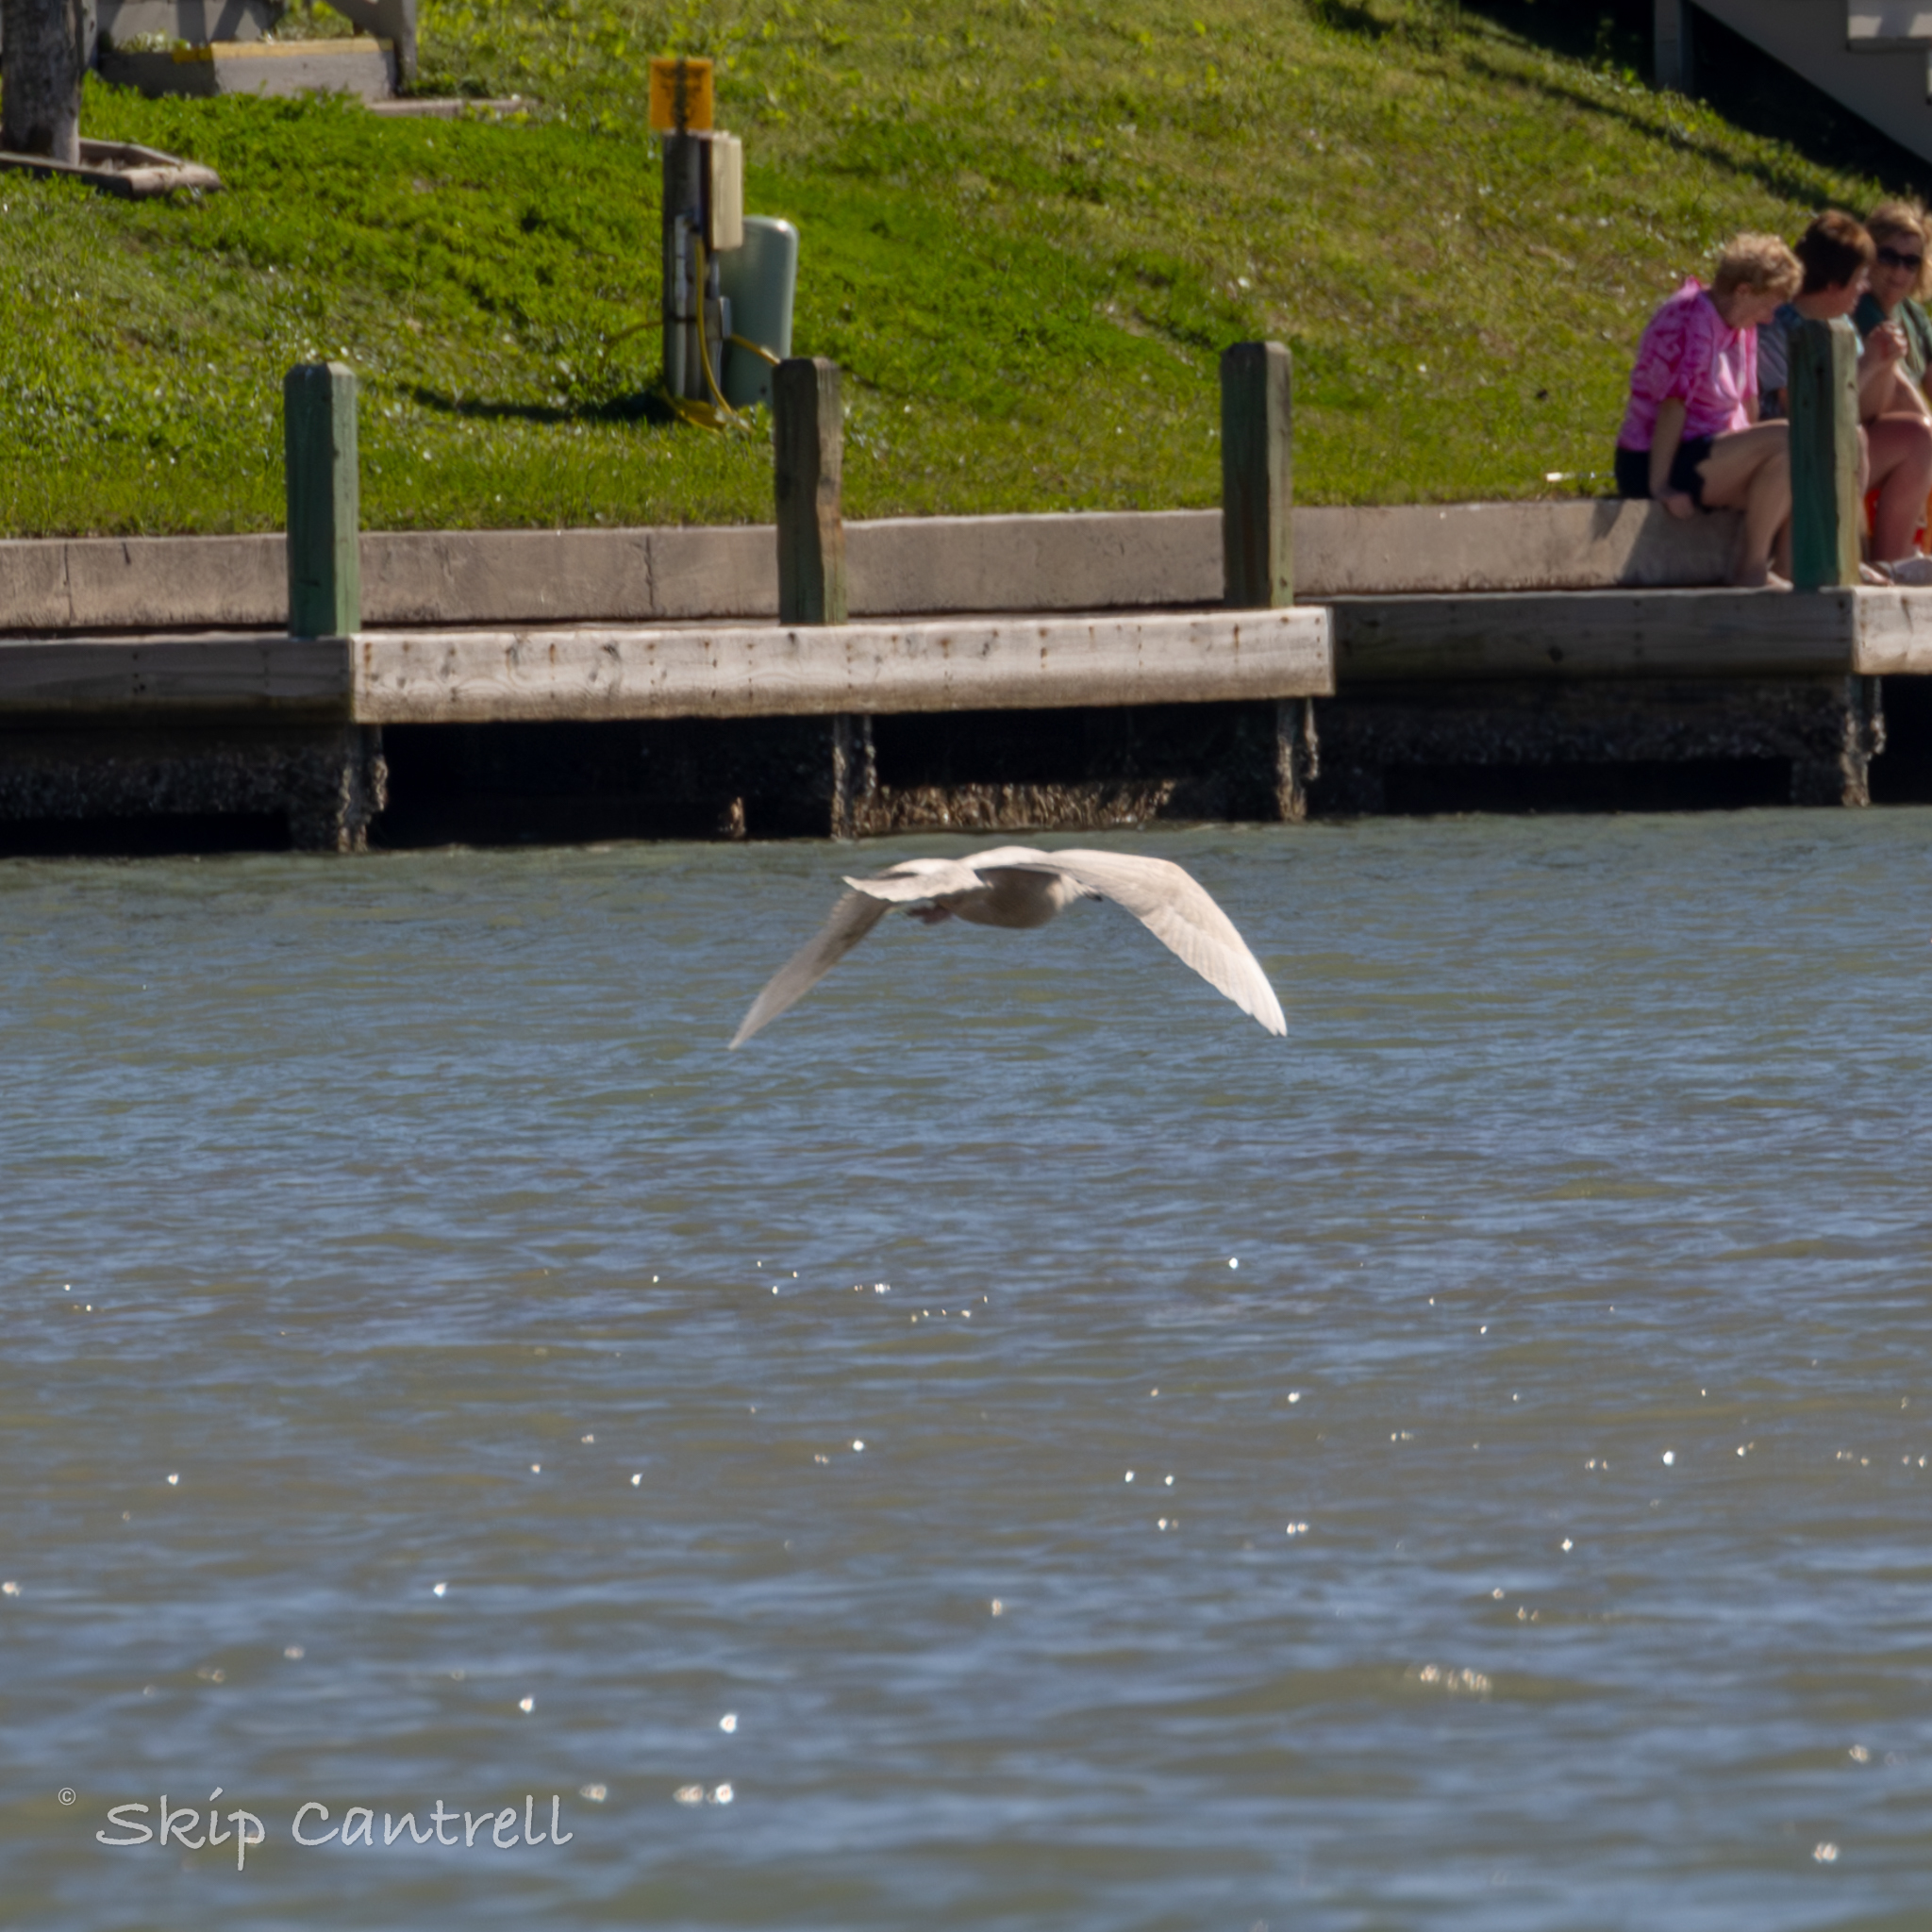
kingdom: Animalia
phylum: Chordata
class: Aves
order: Charadriiformes
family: Laridae
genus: Larus
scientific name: Larus hyperboreus
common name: Glaucous gull
